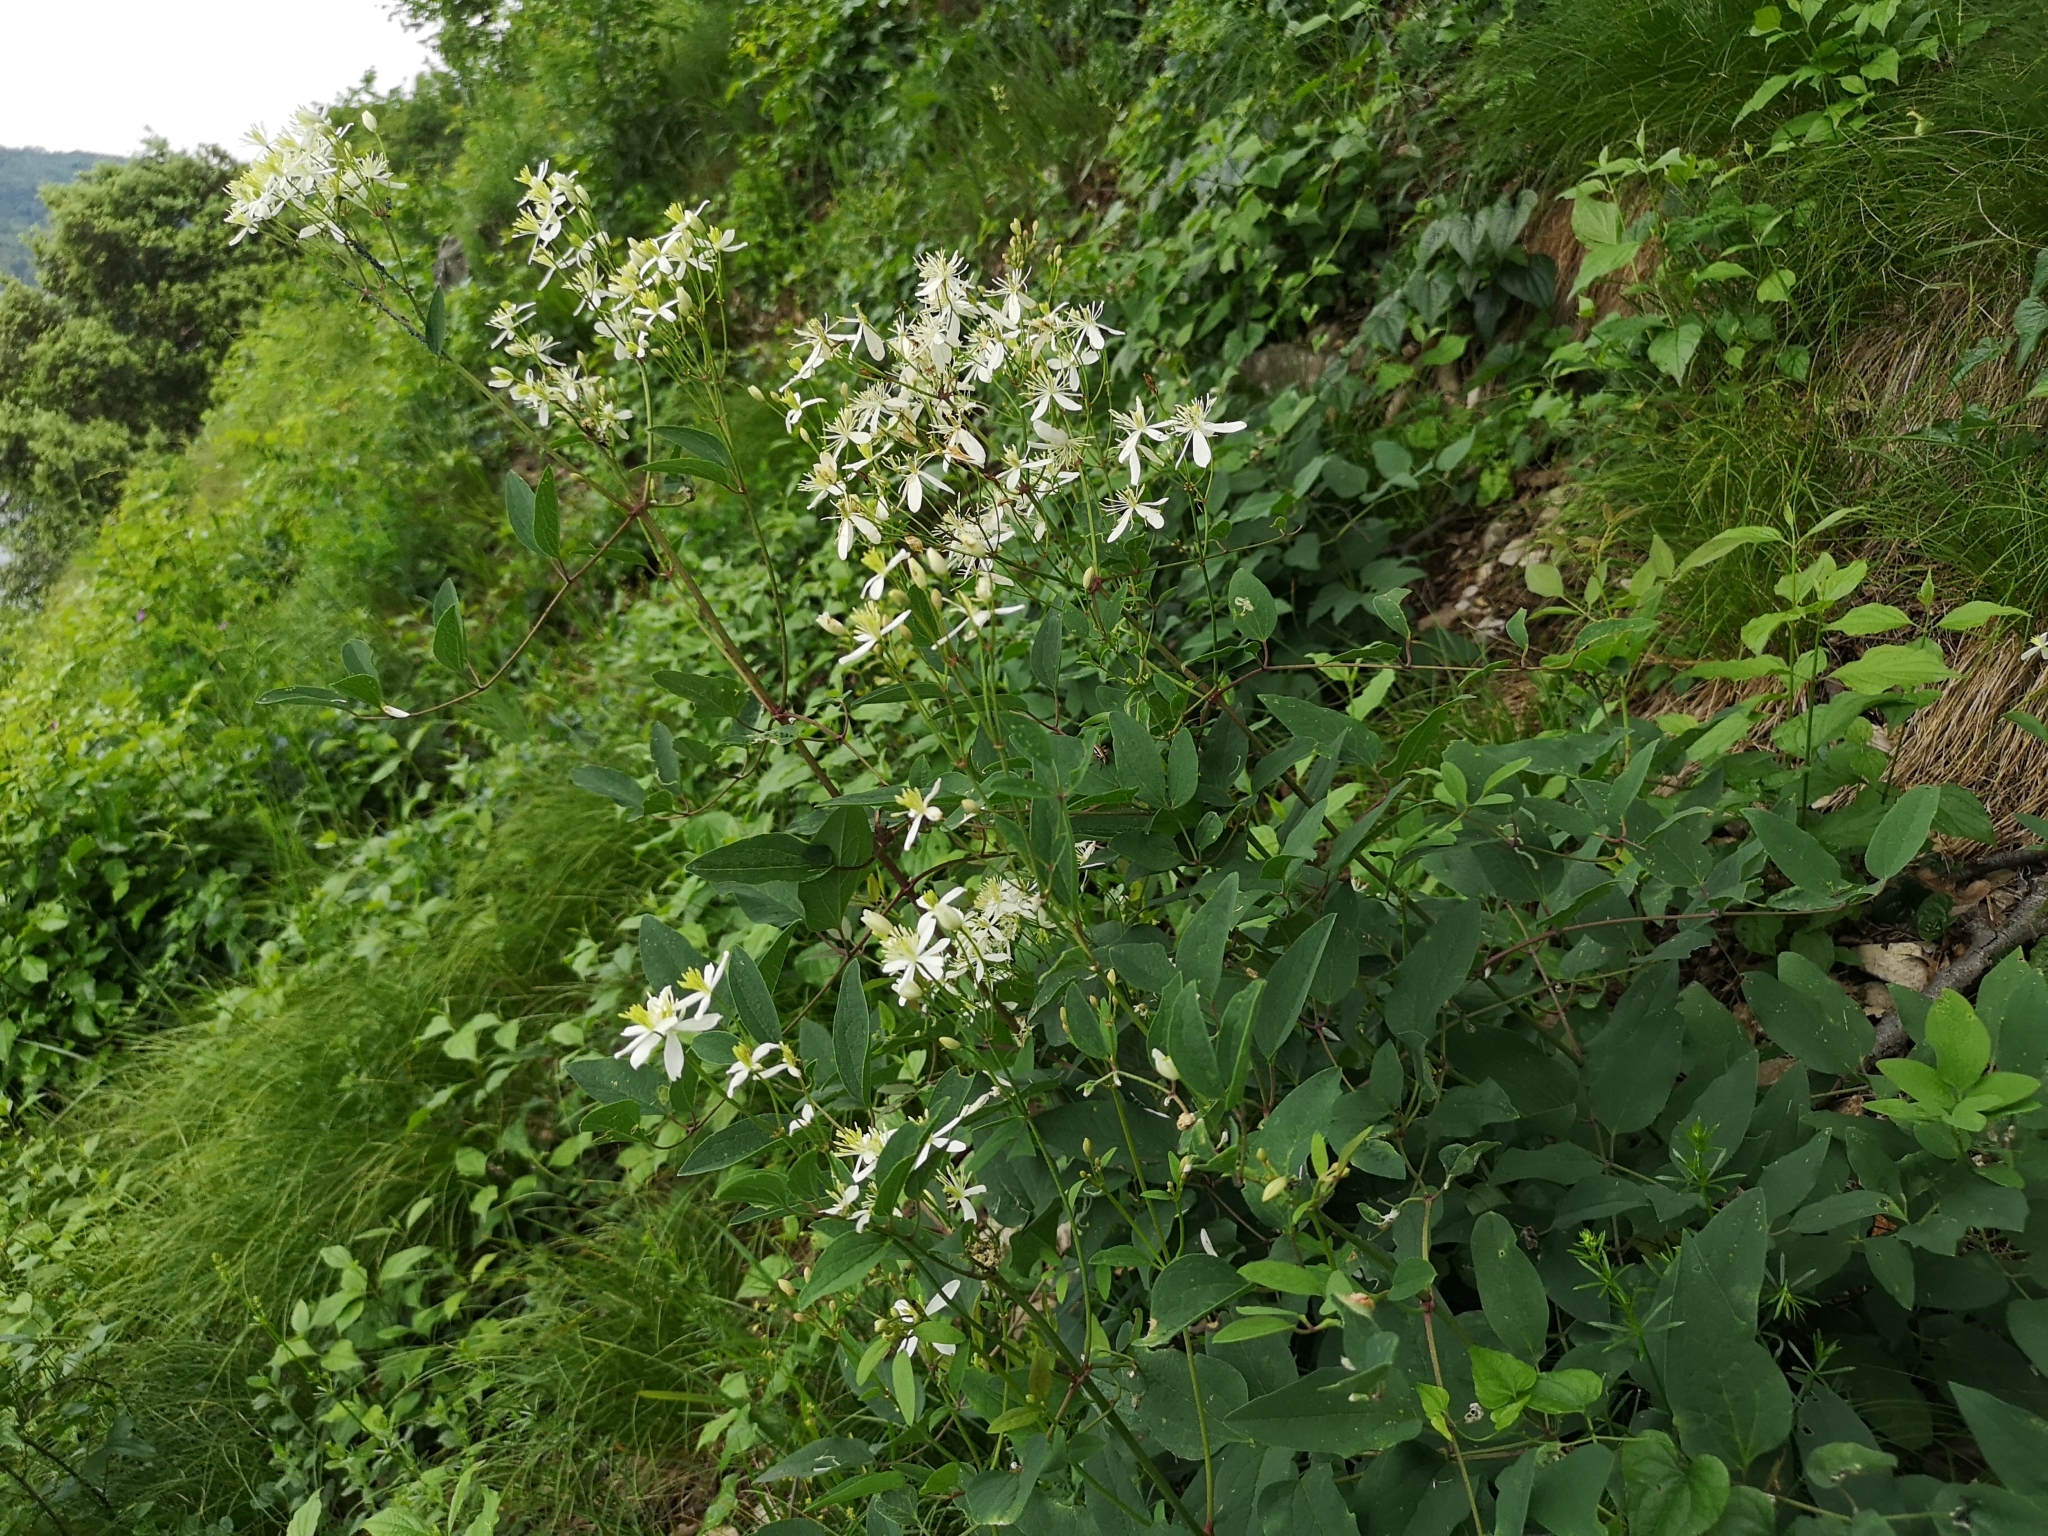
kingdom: Plantae
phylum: Tracheophyta
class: Magnoliopsida
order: Ranunculales
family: Ranunculaceae
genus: Clematis
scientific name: Clematis recta
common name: Ground clematis
